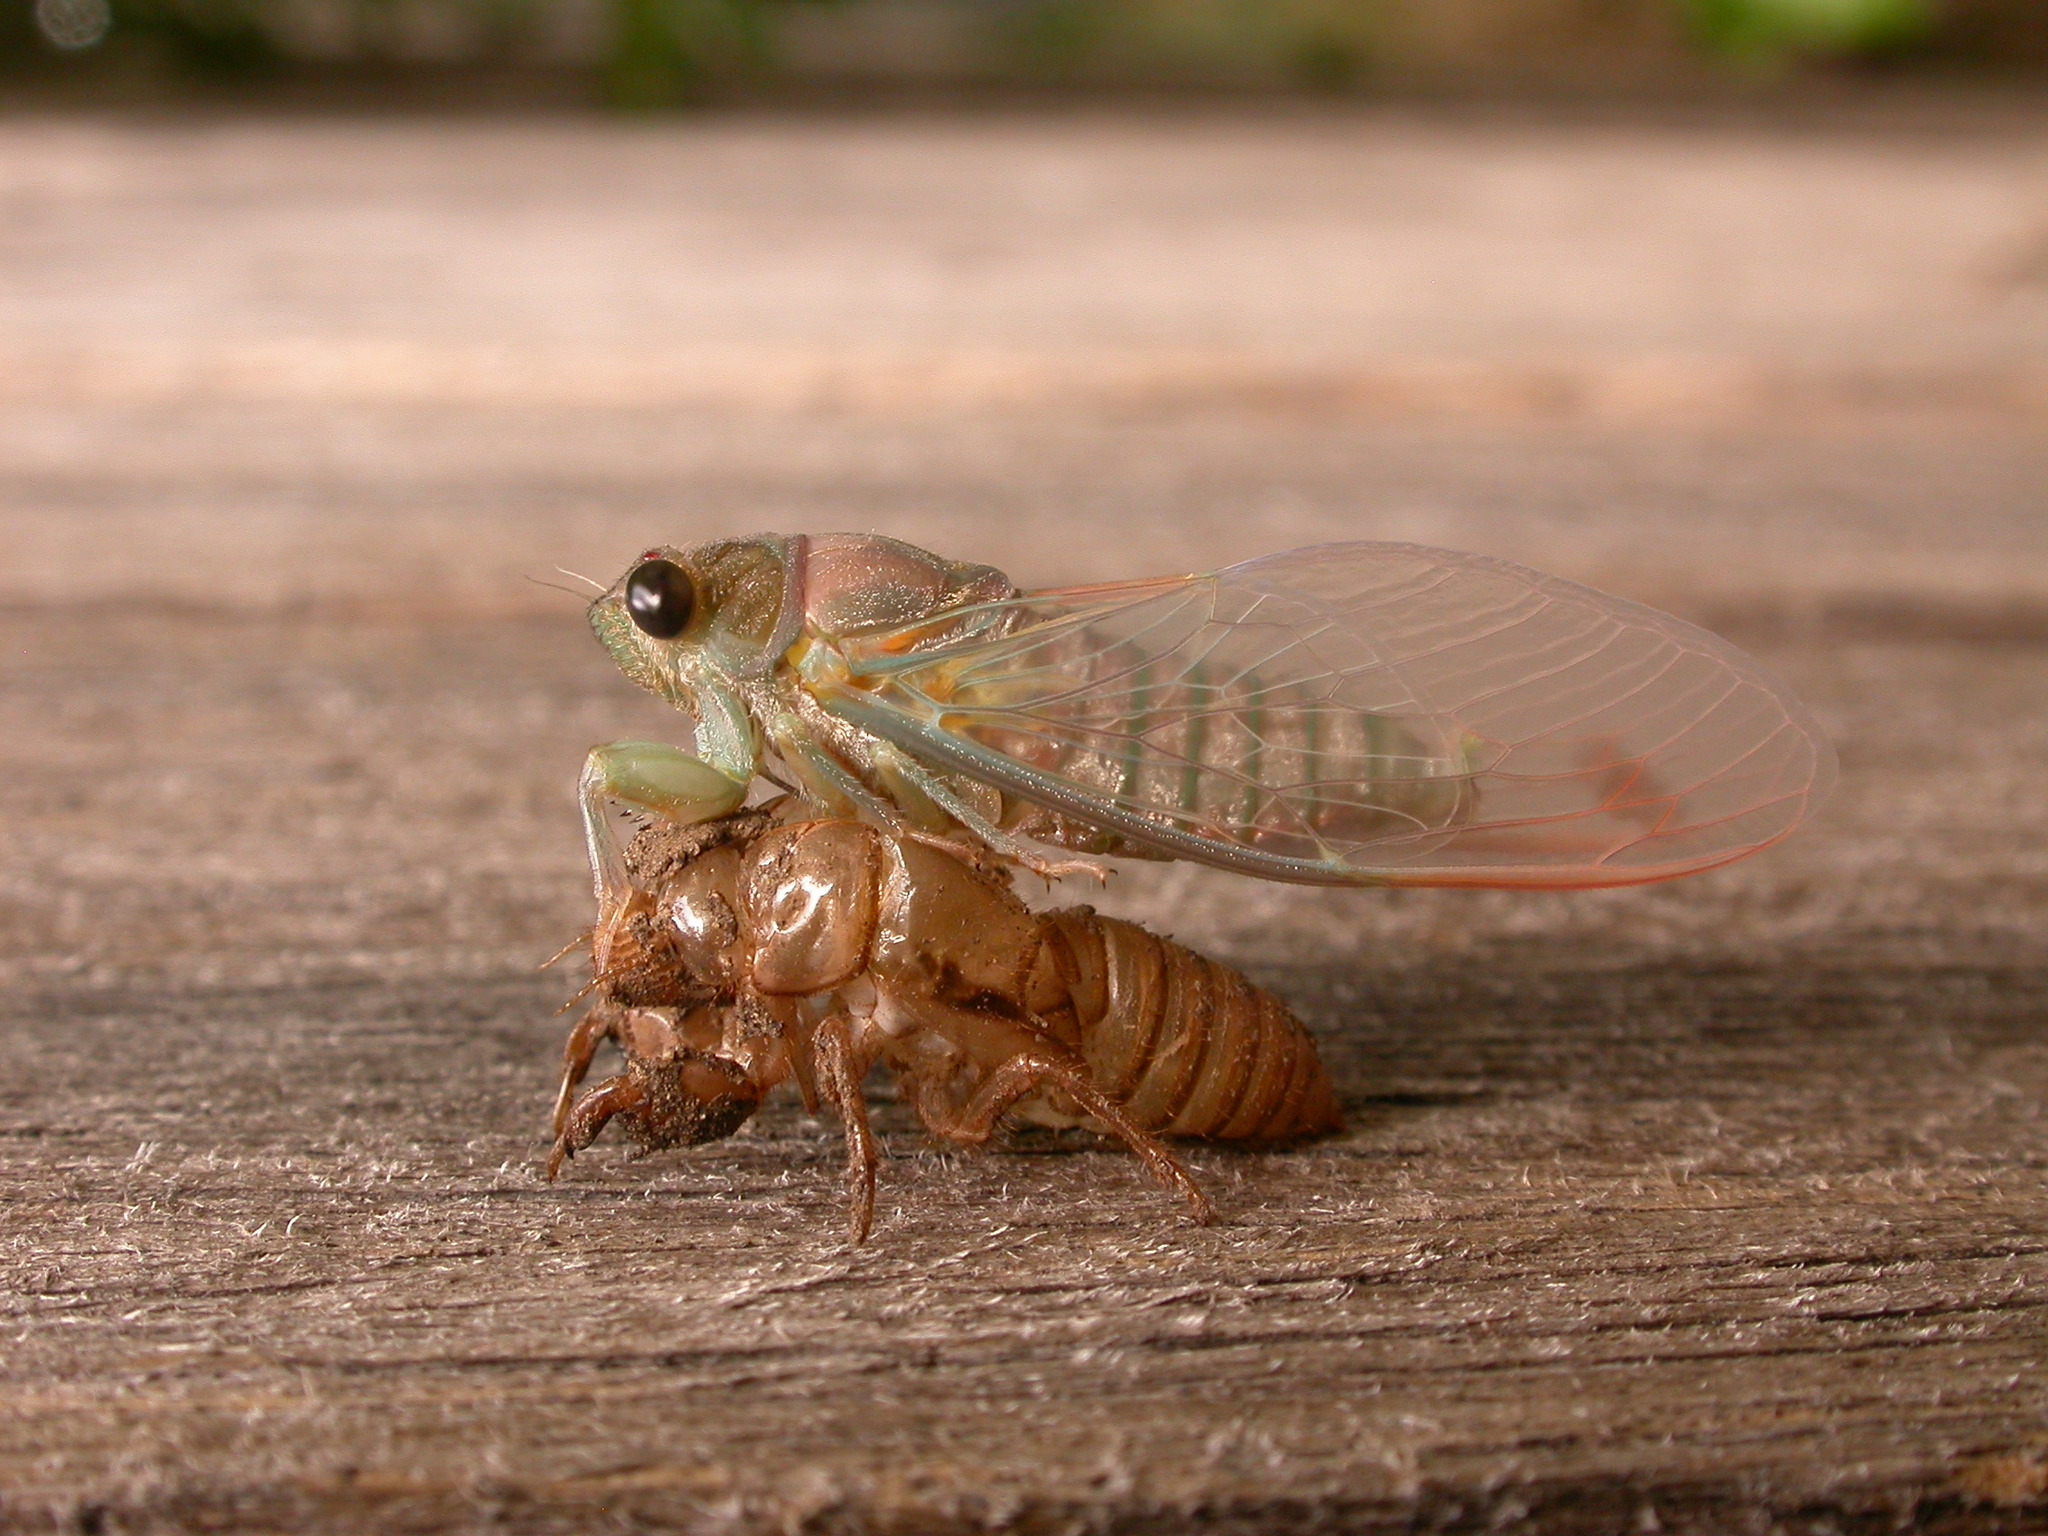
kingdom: Animalia
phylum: Arthropoda
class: Insecta
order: Hemiptera
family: Cicadidae
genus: Galanga
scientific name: Galanga labeculata
